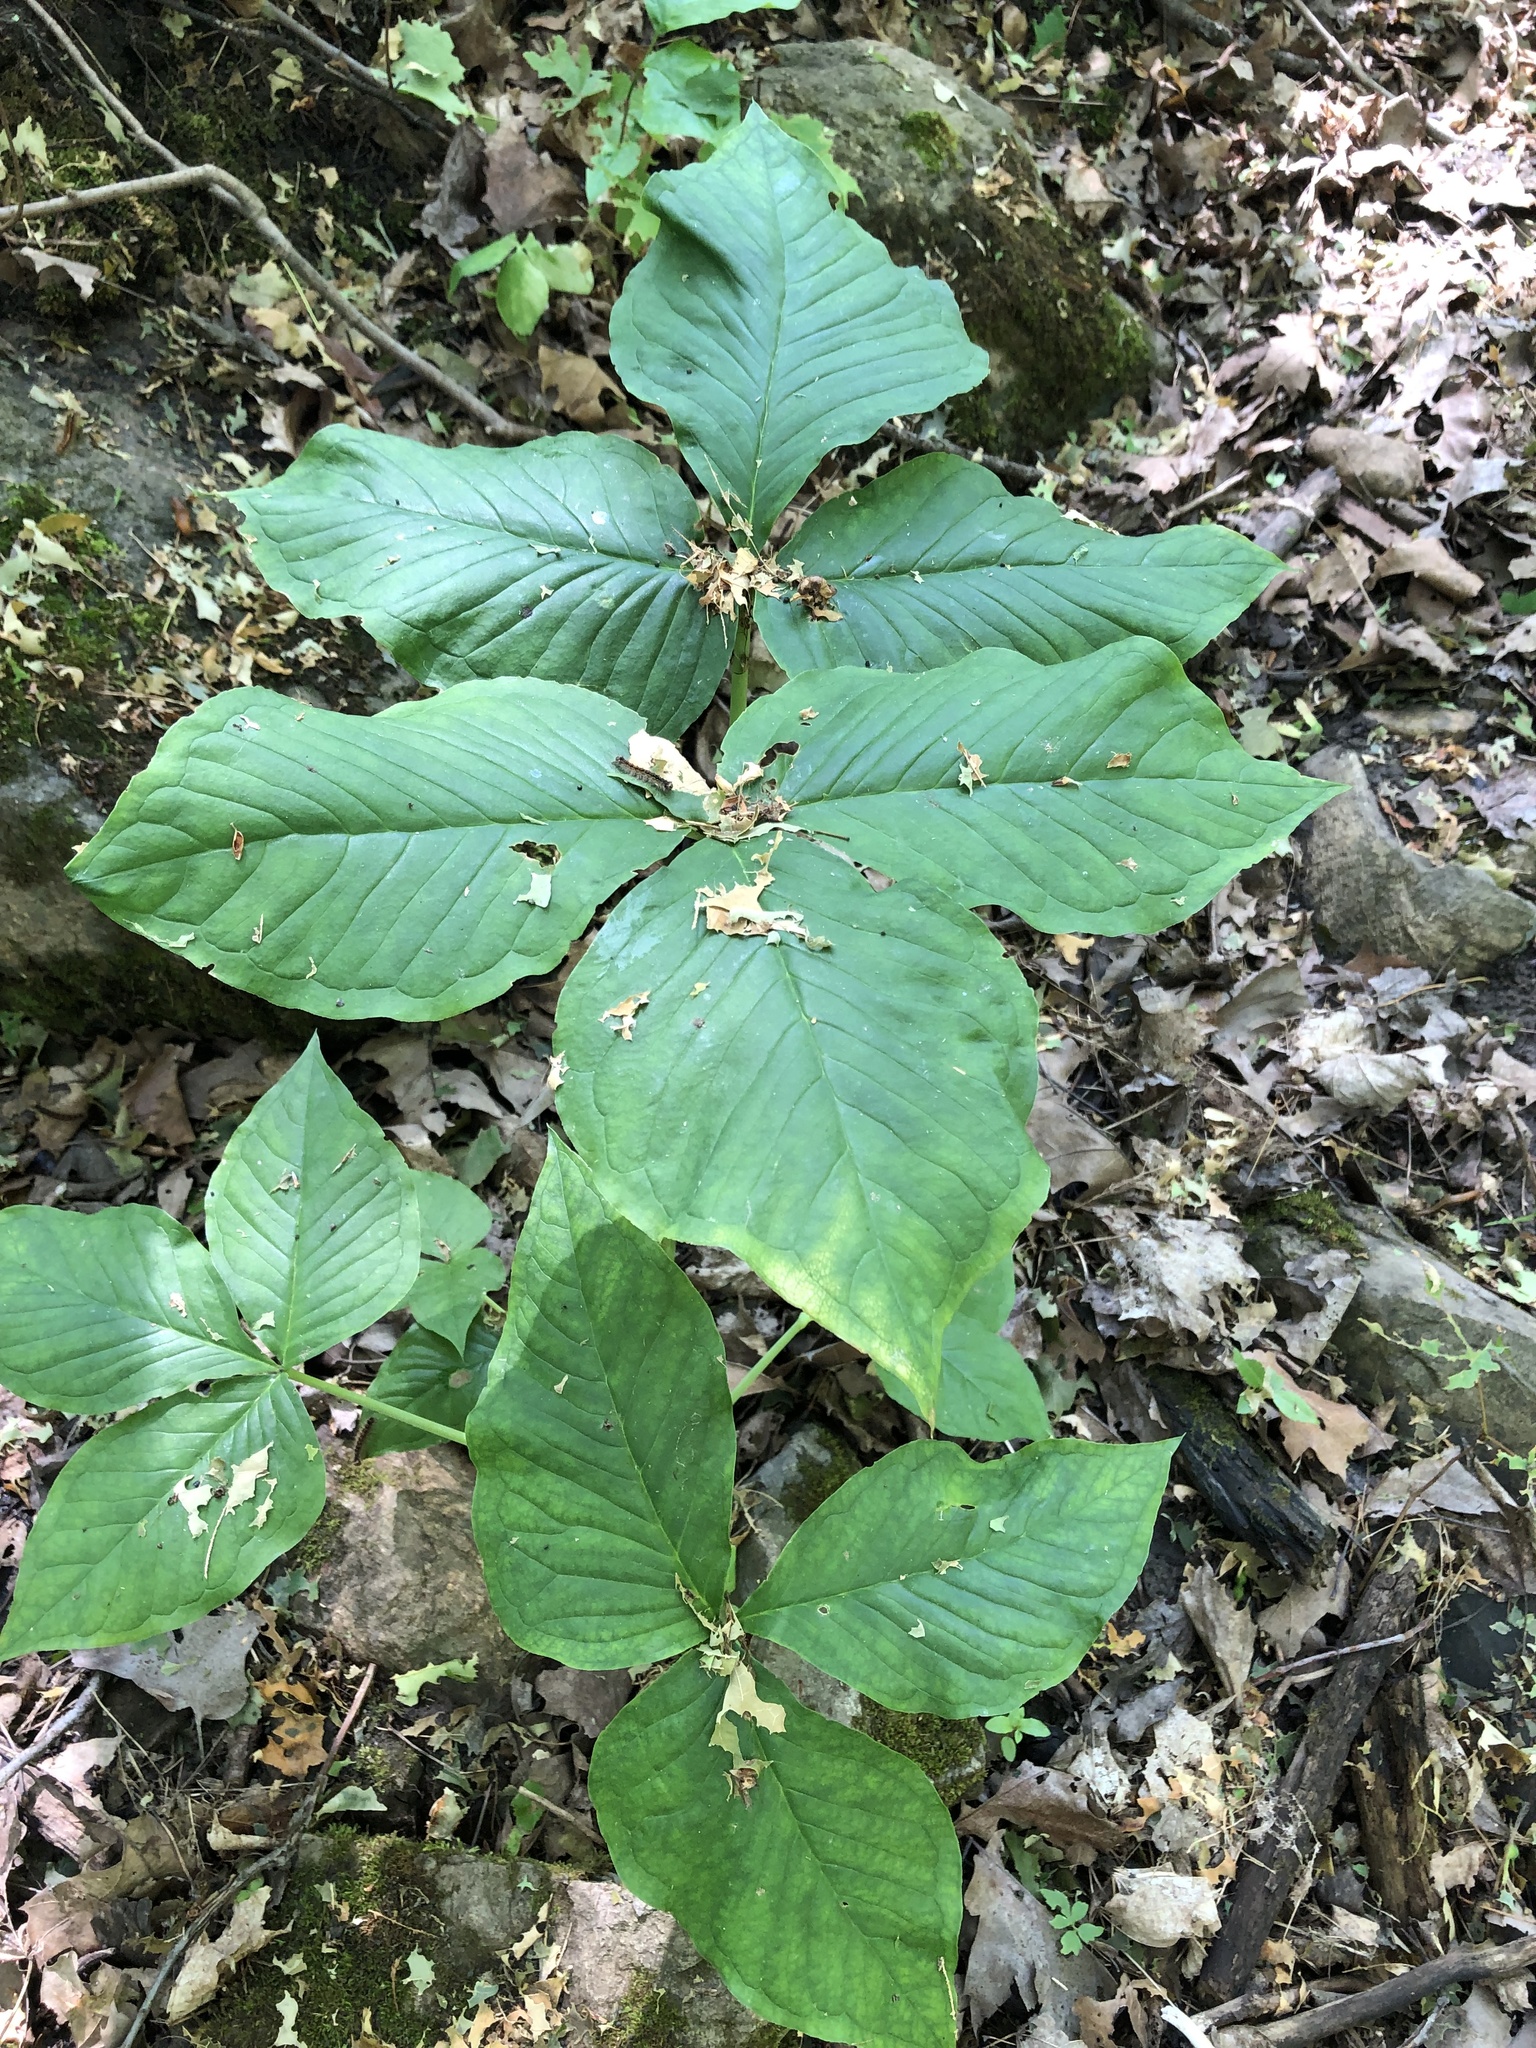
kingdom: Plantae
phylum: Tracheophyta
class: Liliopsida
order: Alismatales
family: Araceae
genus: Arisaema
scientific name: Arisaema triphyllum
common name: Jack-in-the-pulpit
